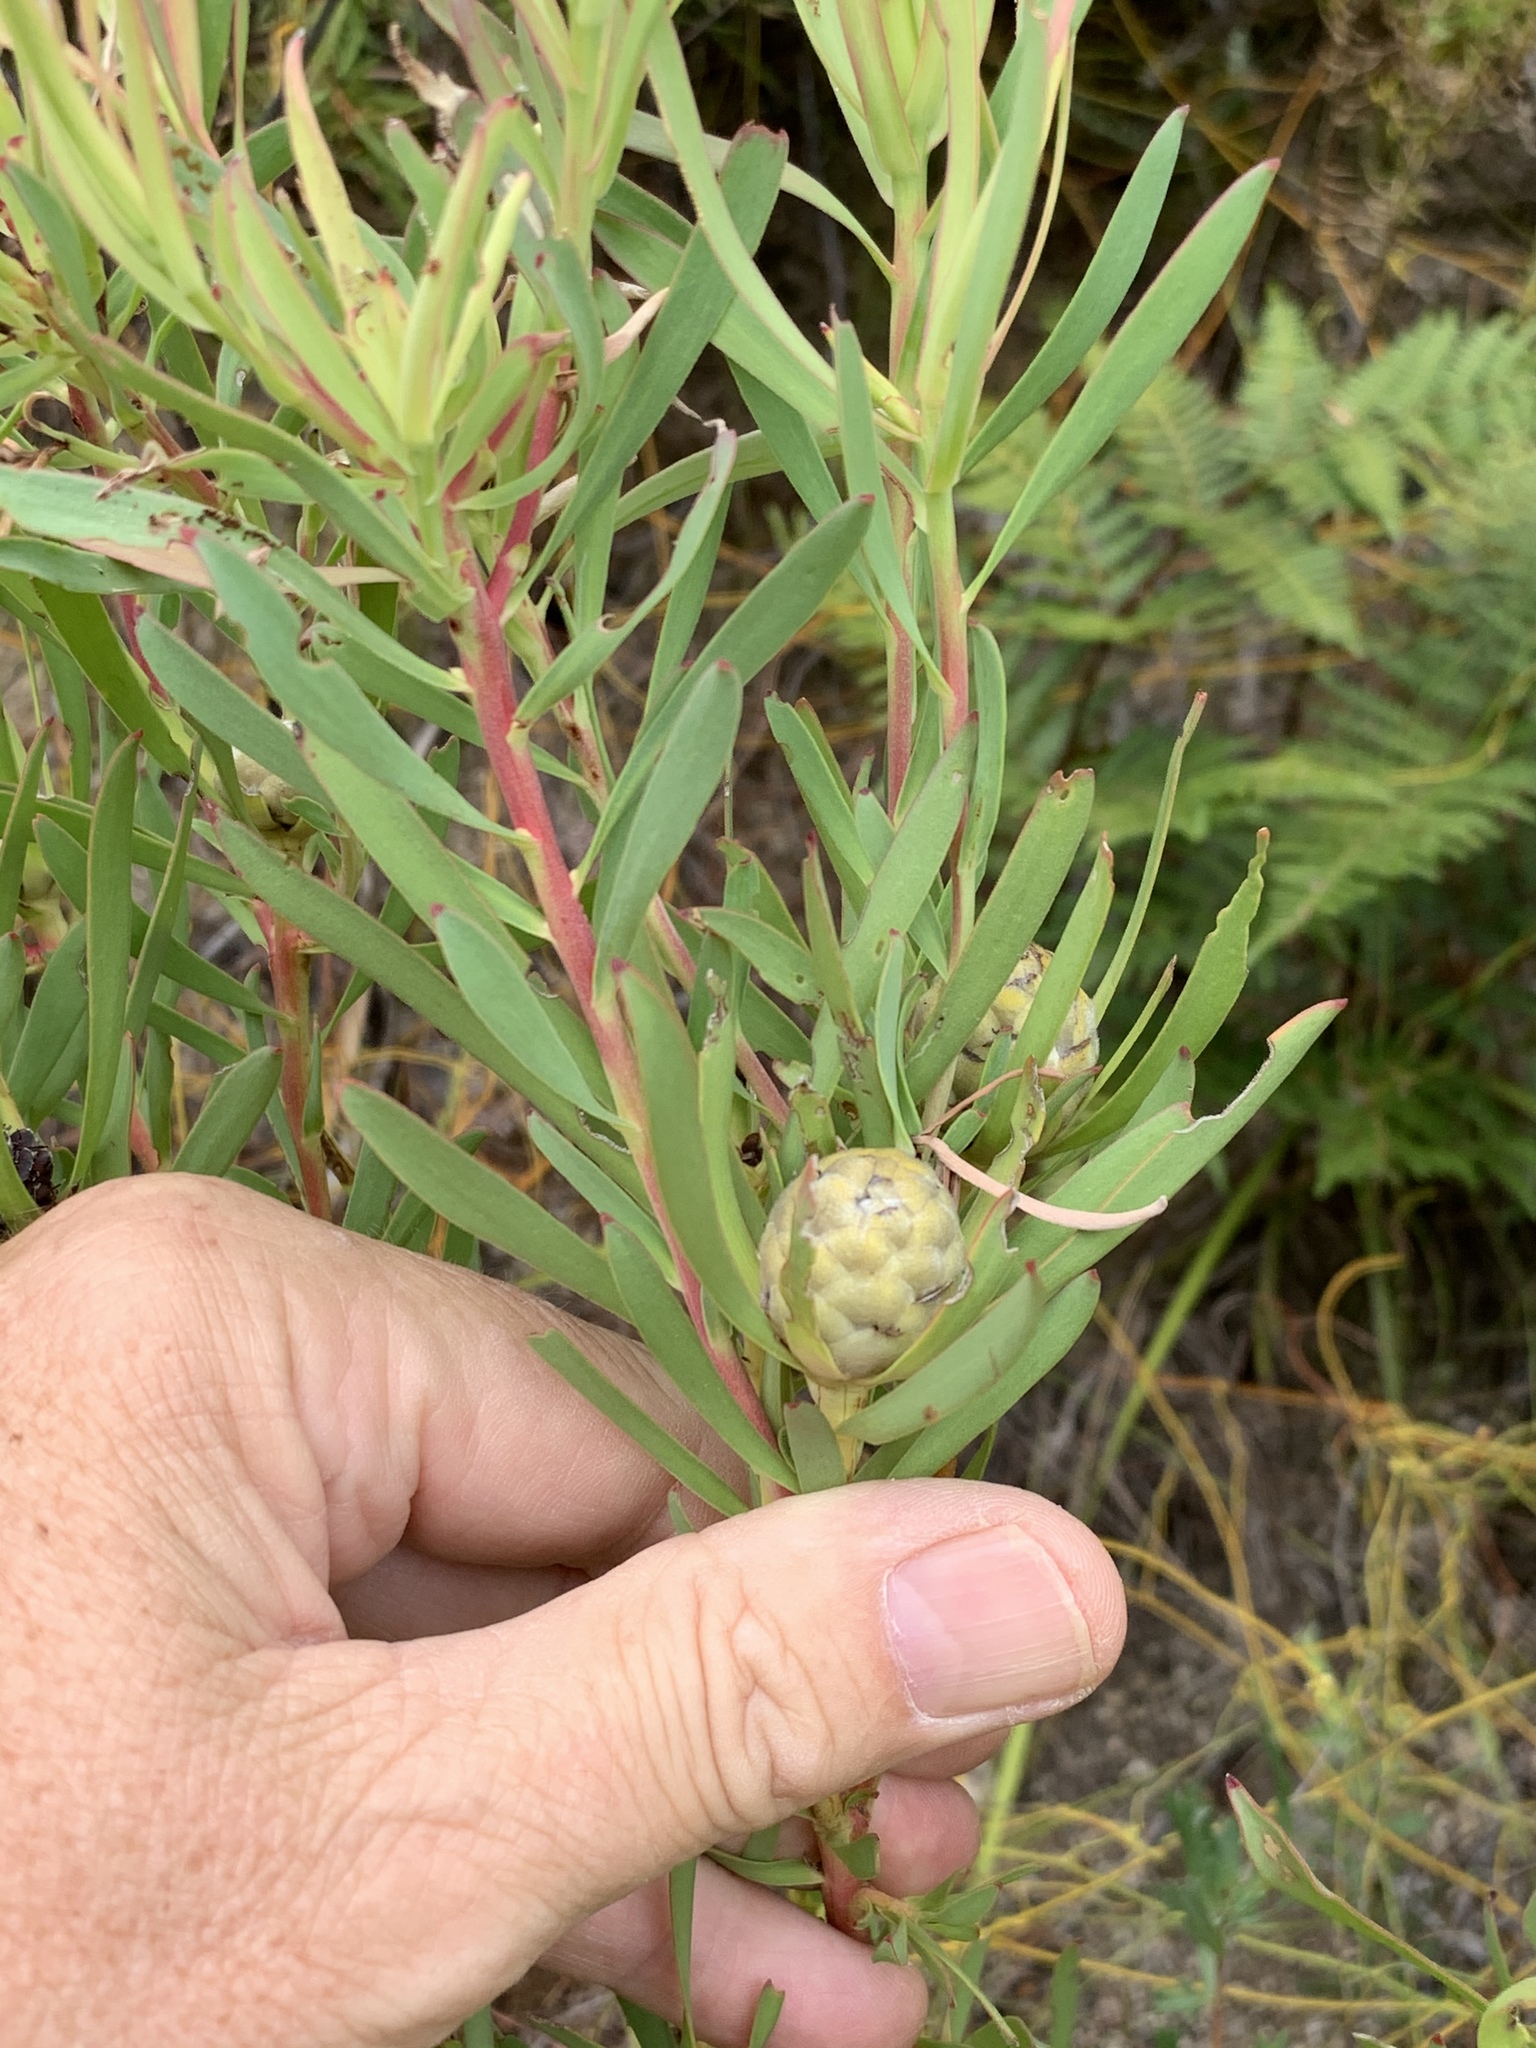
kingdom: Plantae
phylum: Tracheophyta
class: Magnoliopsida
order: Proteales
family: Proteaceae
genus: Leucadendron
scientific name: Leucadendron salignum
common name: Common sunshine conebush
